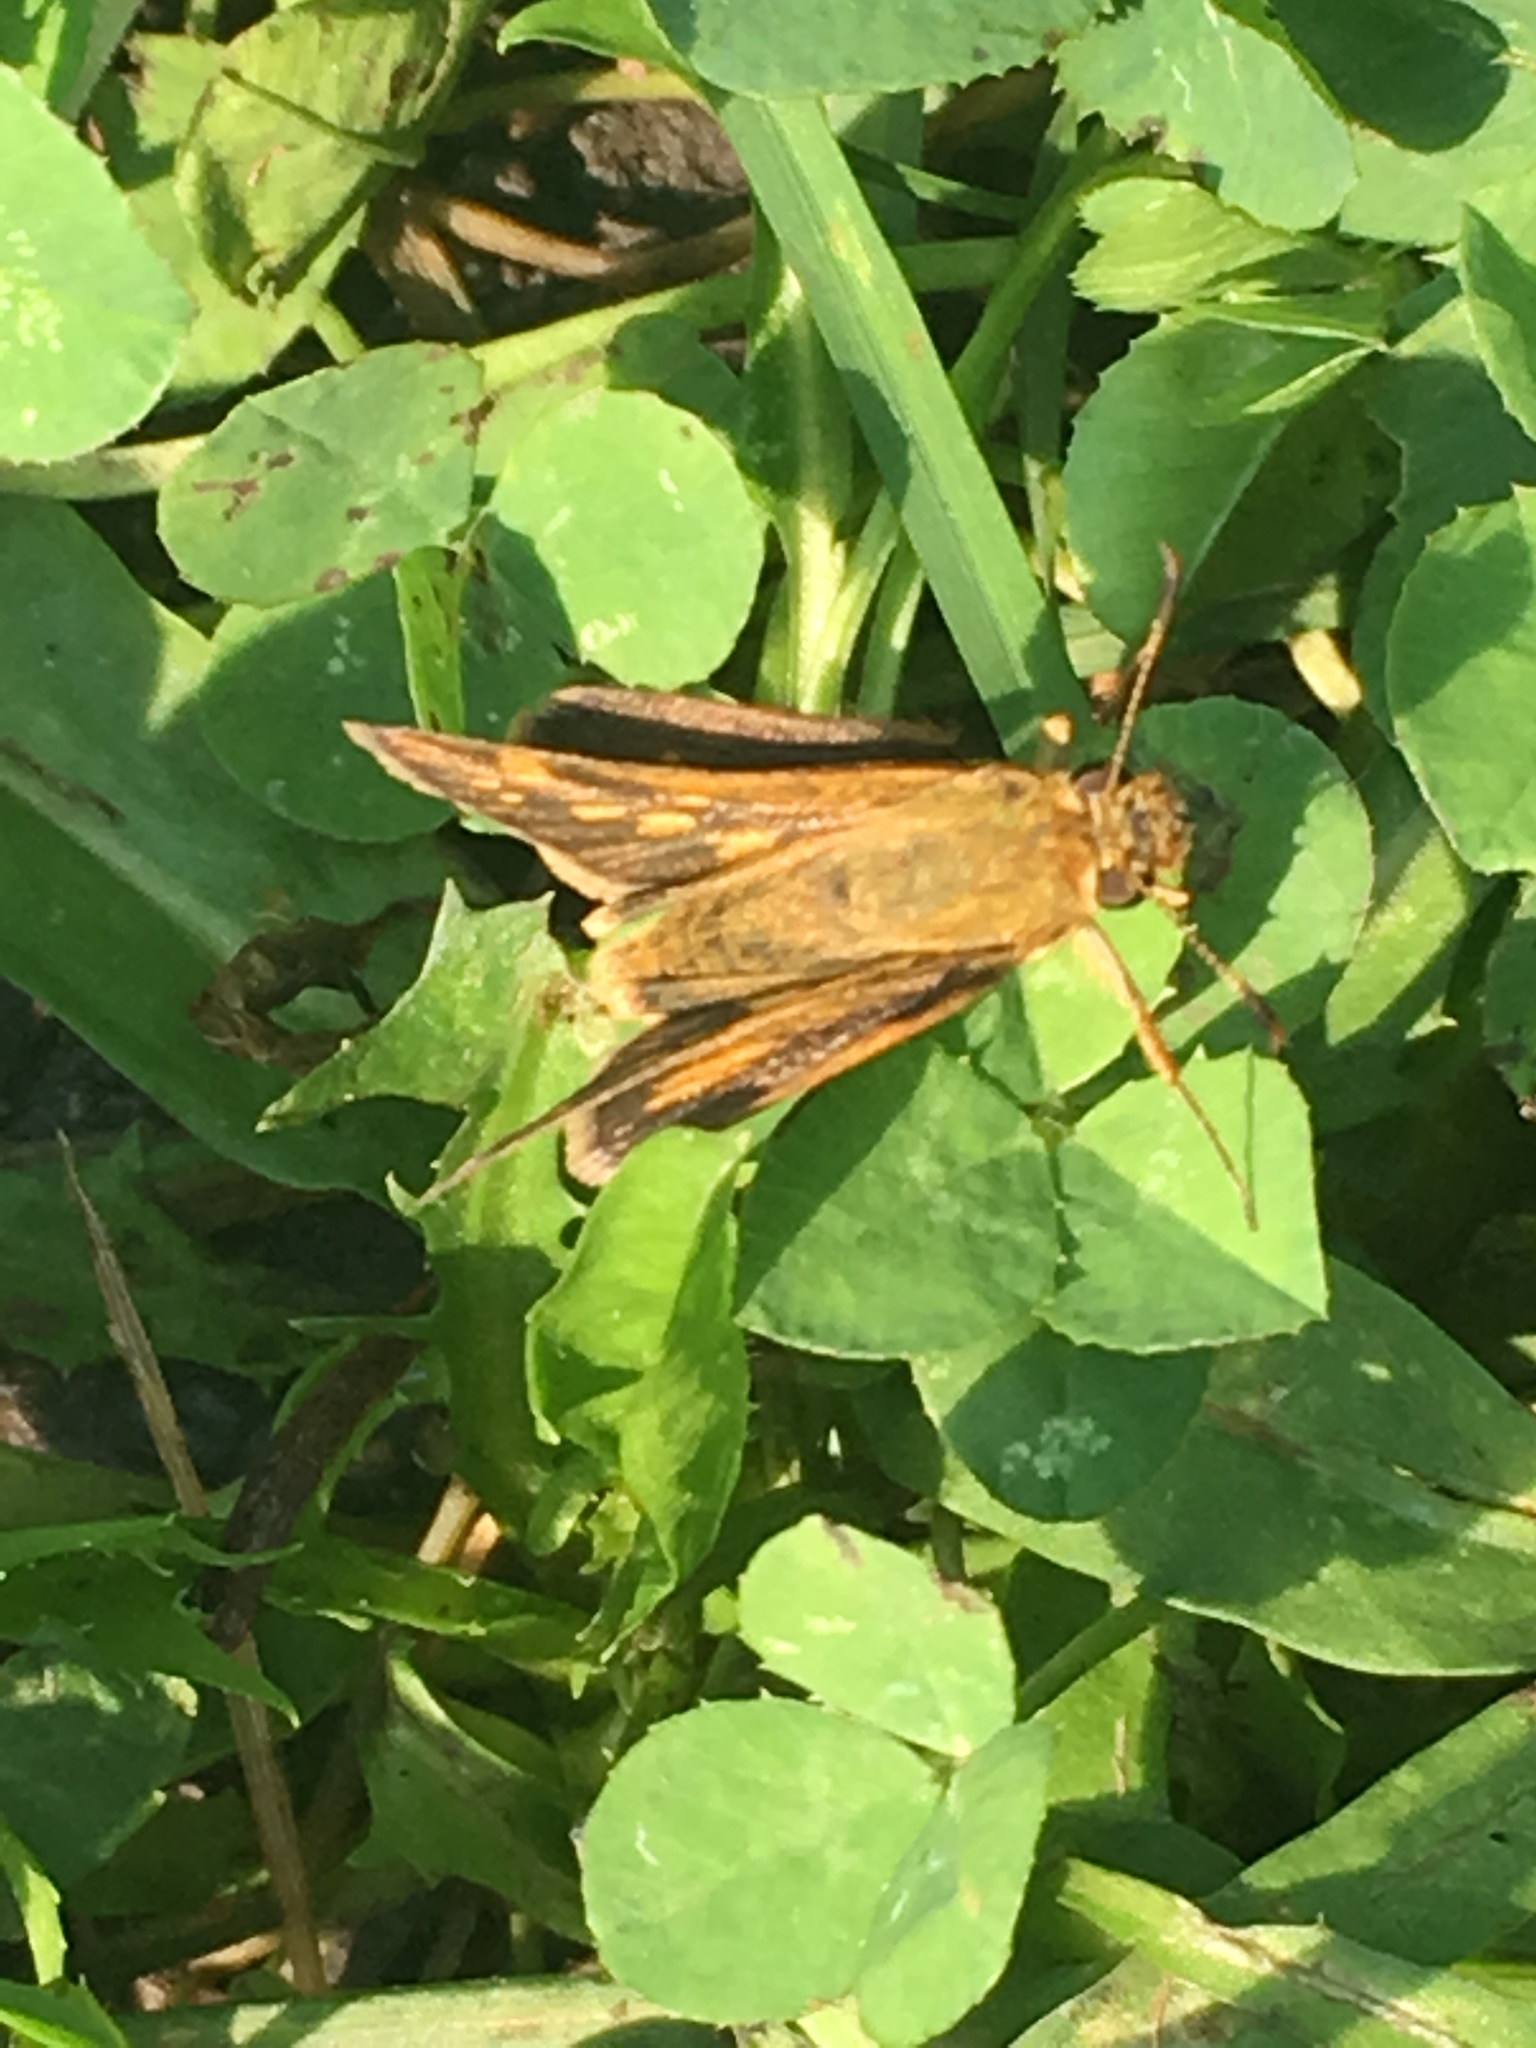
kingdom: Animalia
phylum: Arthropoda
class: Insecta
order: Lepidoptera
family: Hesperiidae
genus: Polites
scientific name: Polites coras
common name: Peck's skipper
